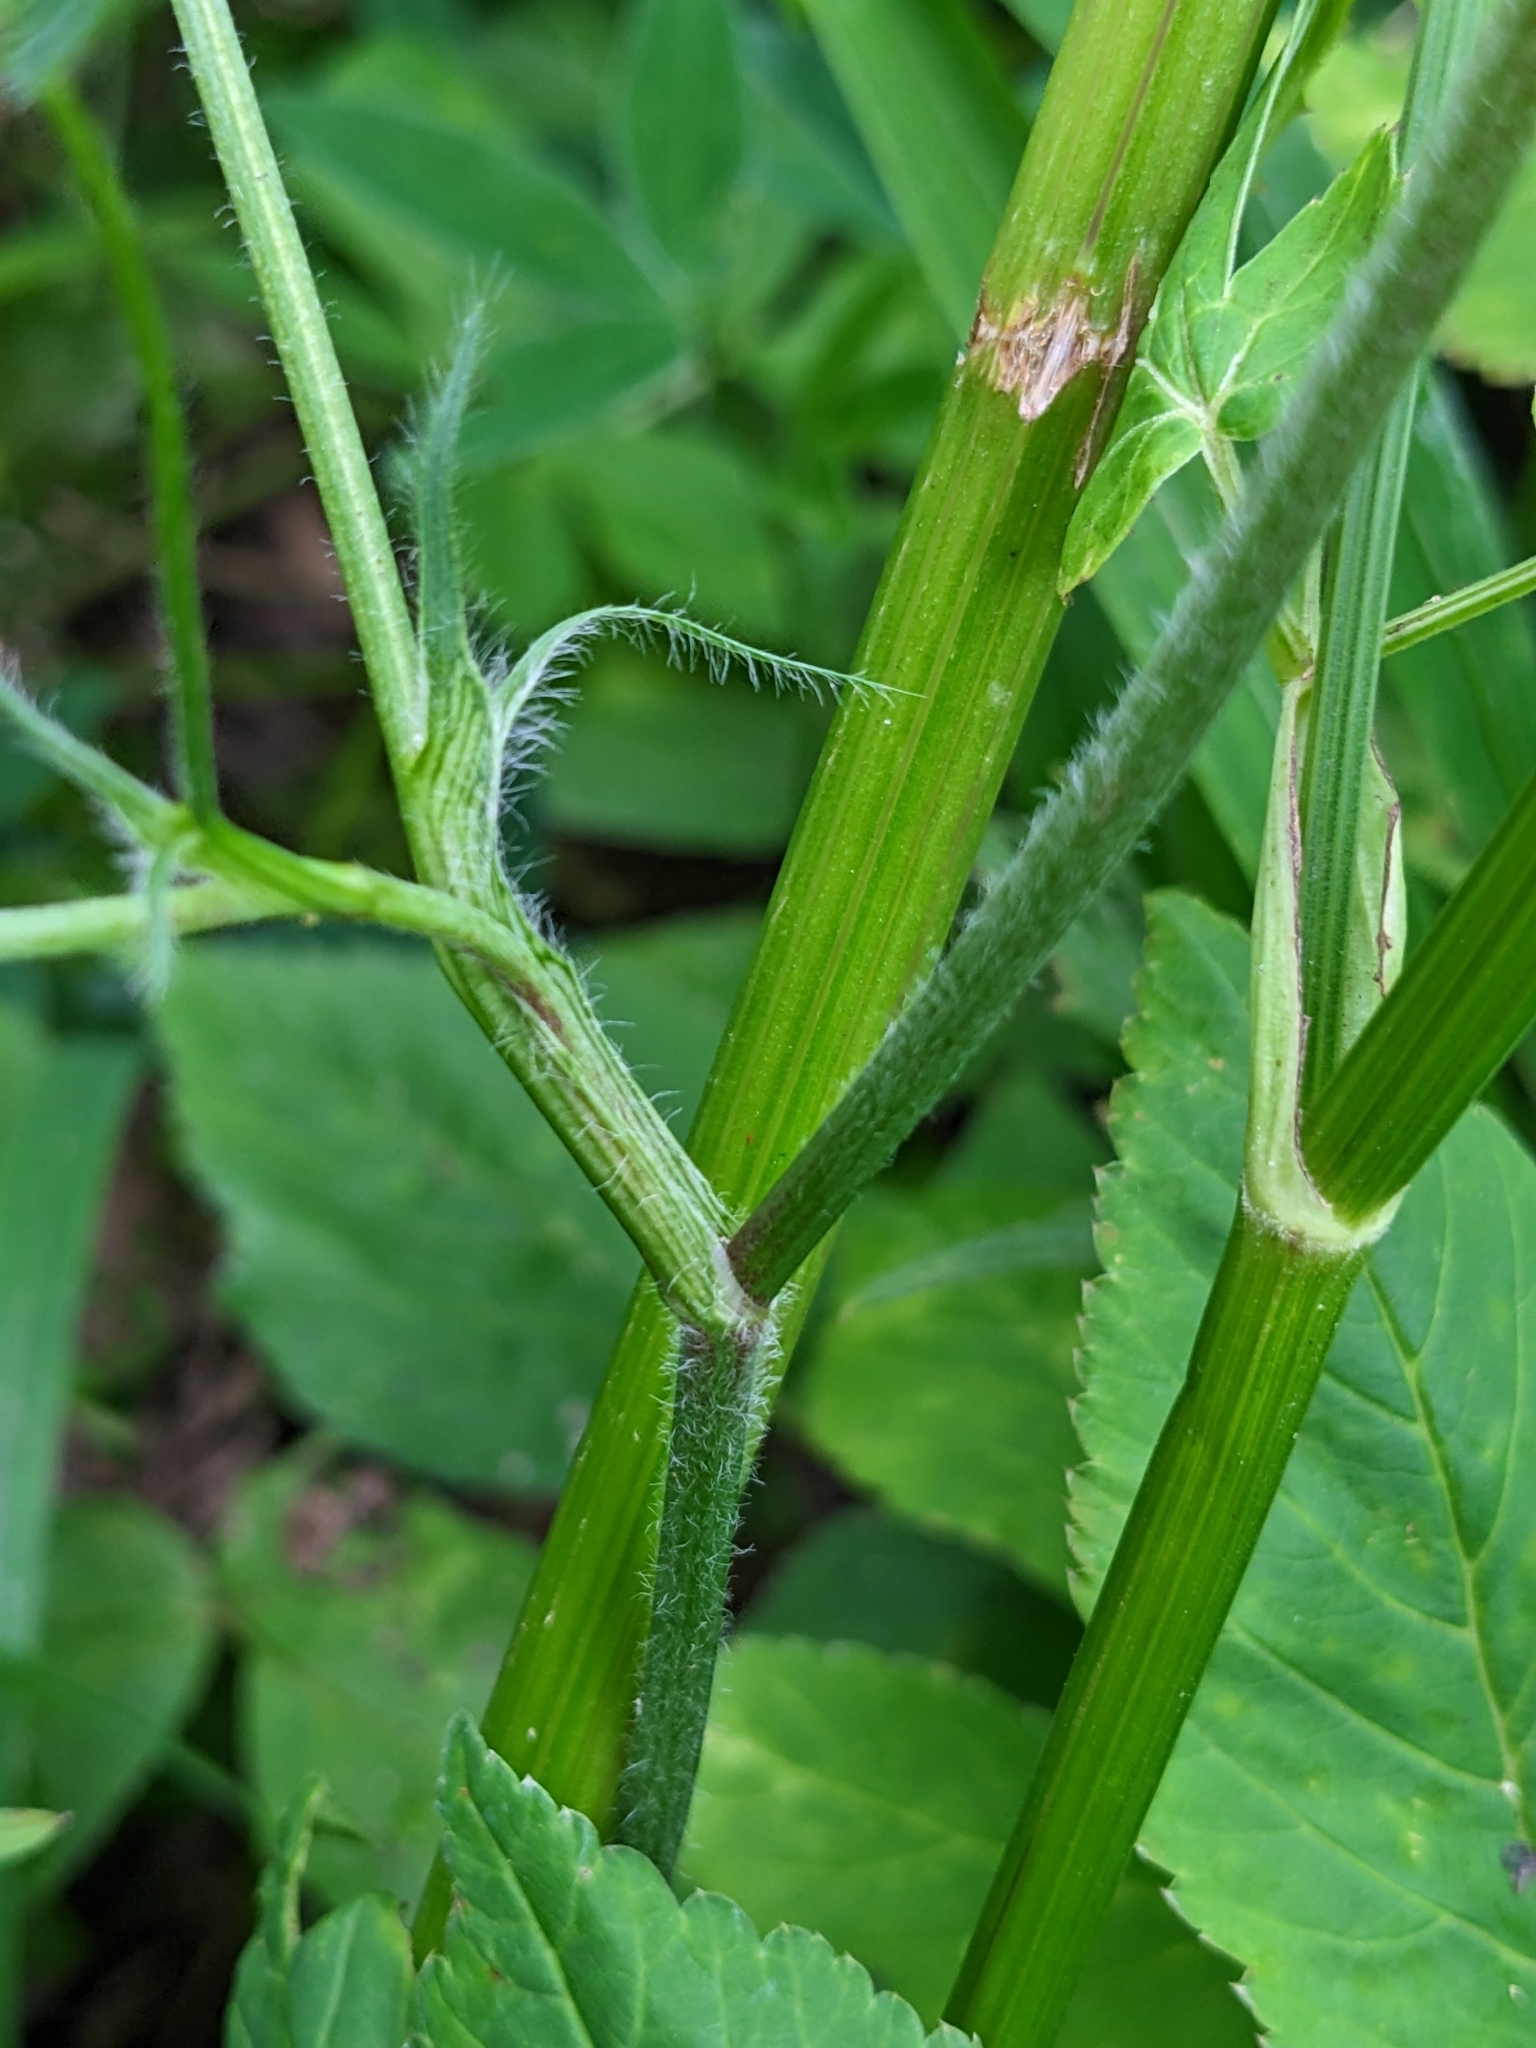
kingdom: Plantae
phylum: Tracheophyta
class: Magnoliopsida
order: Fabales
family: Fabaceae
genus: Trifolium
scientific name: Trifolium medium
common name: Zigzag clover
